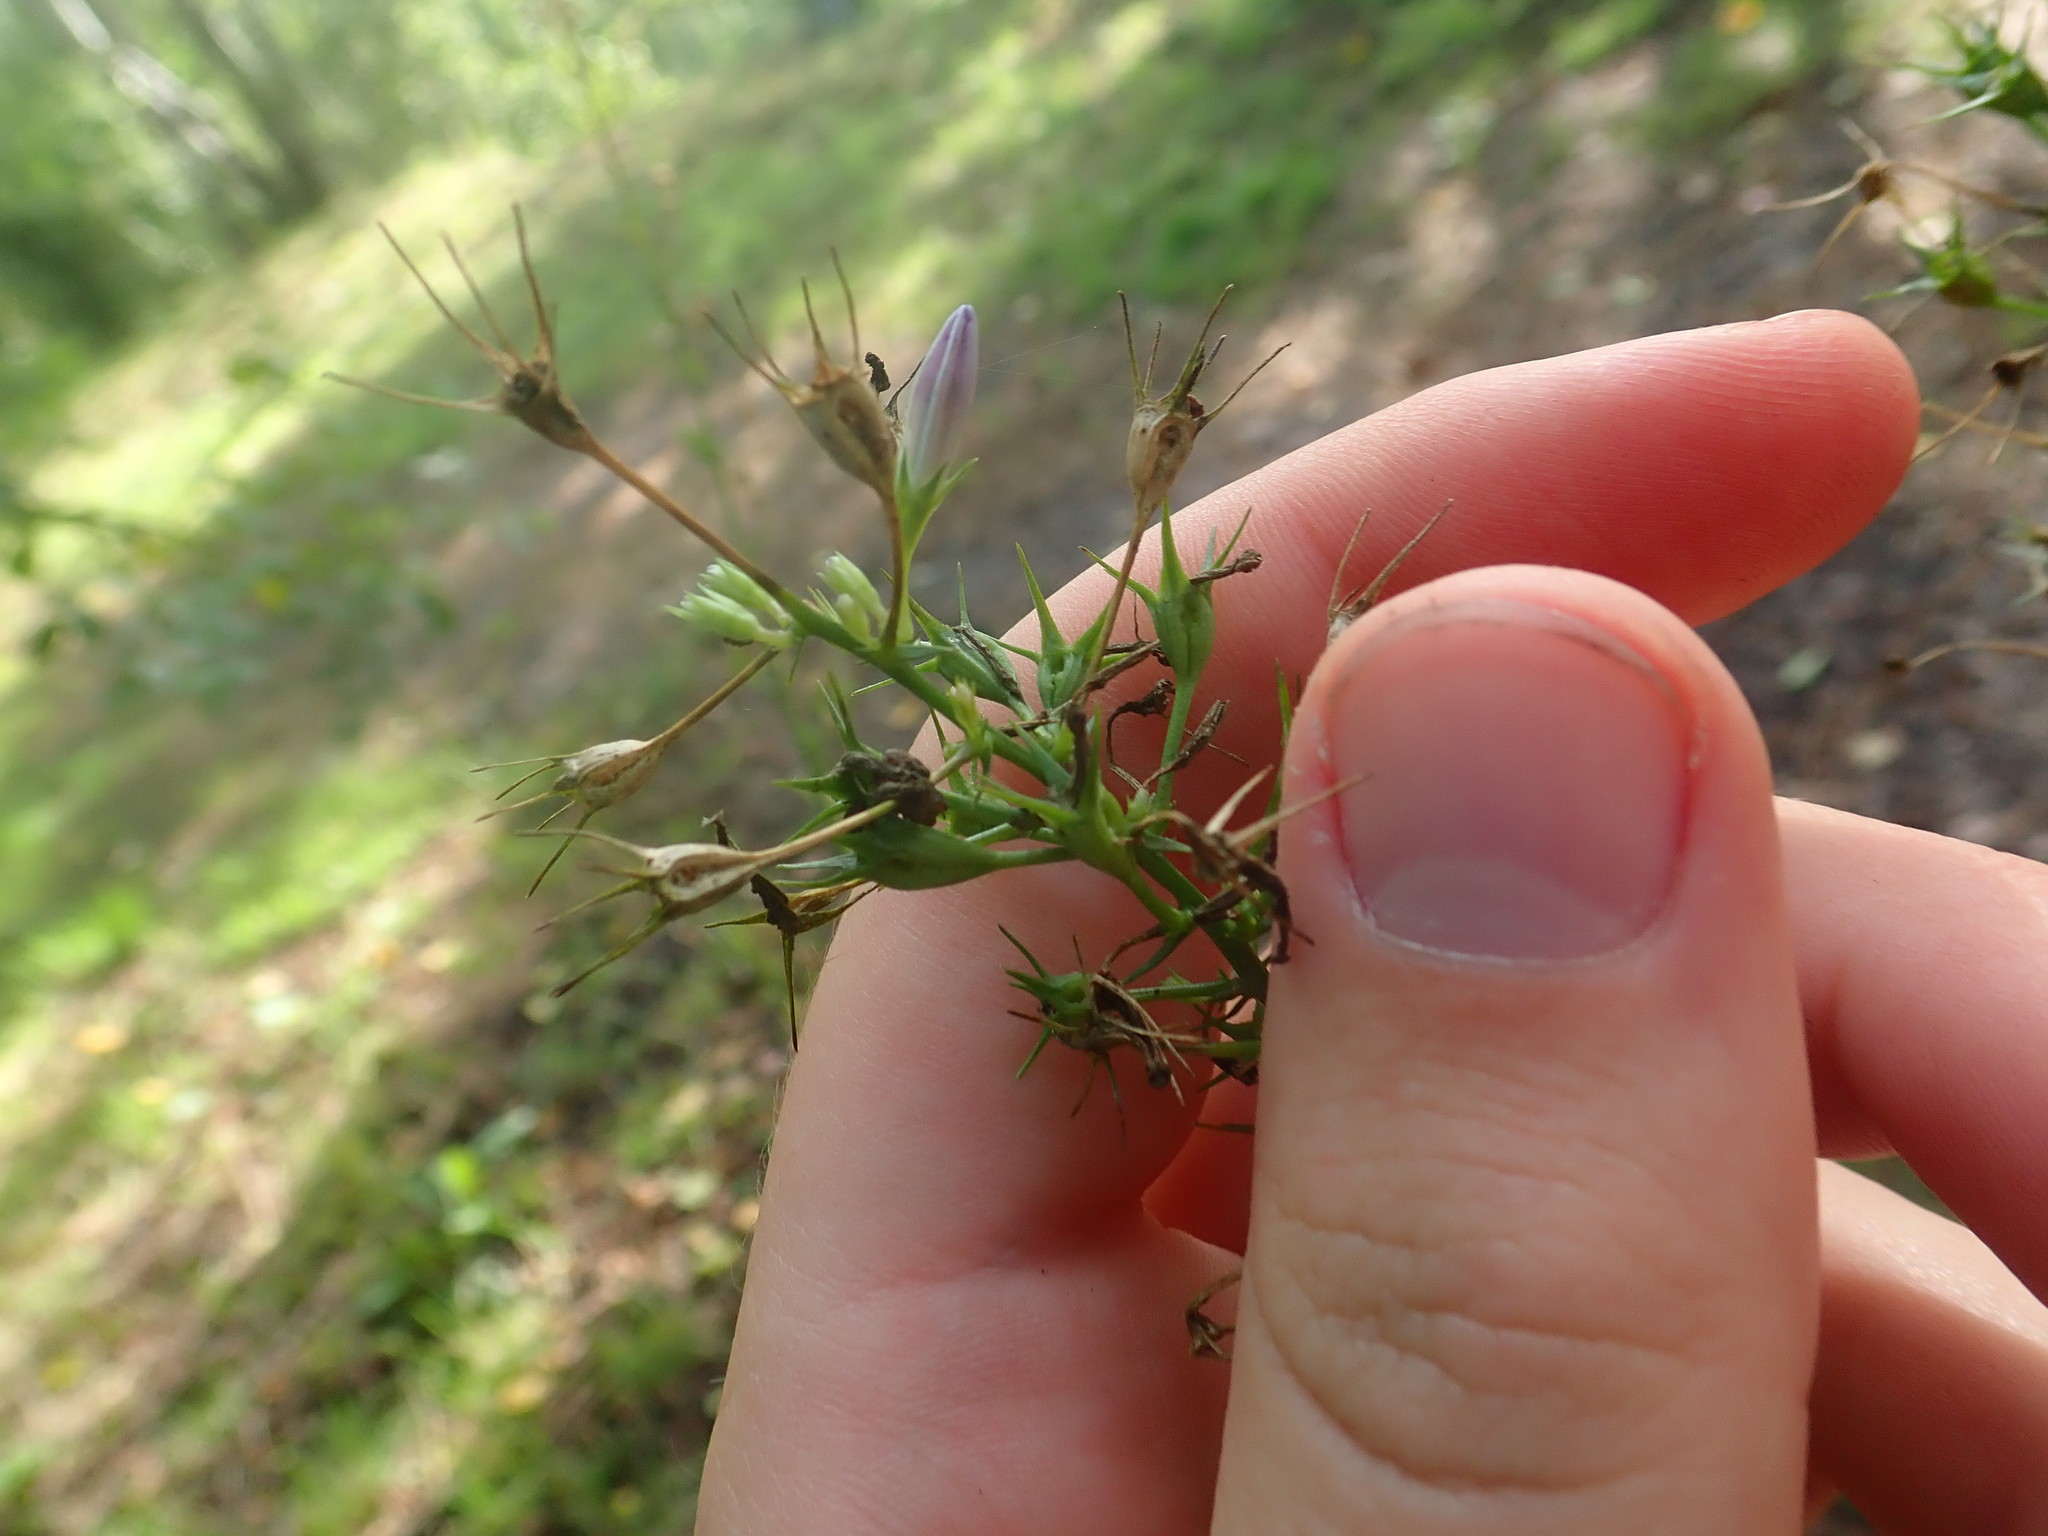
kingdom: Plantae
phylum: Tracheophyta
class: Magnoliopsida
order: Asterales
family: Campanulaceae
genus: Campanula
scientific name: Campanula rapunculus
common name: Rampion bellflower
